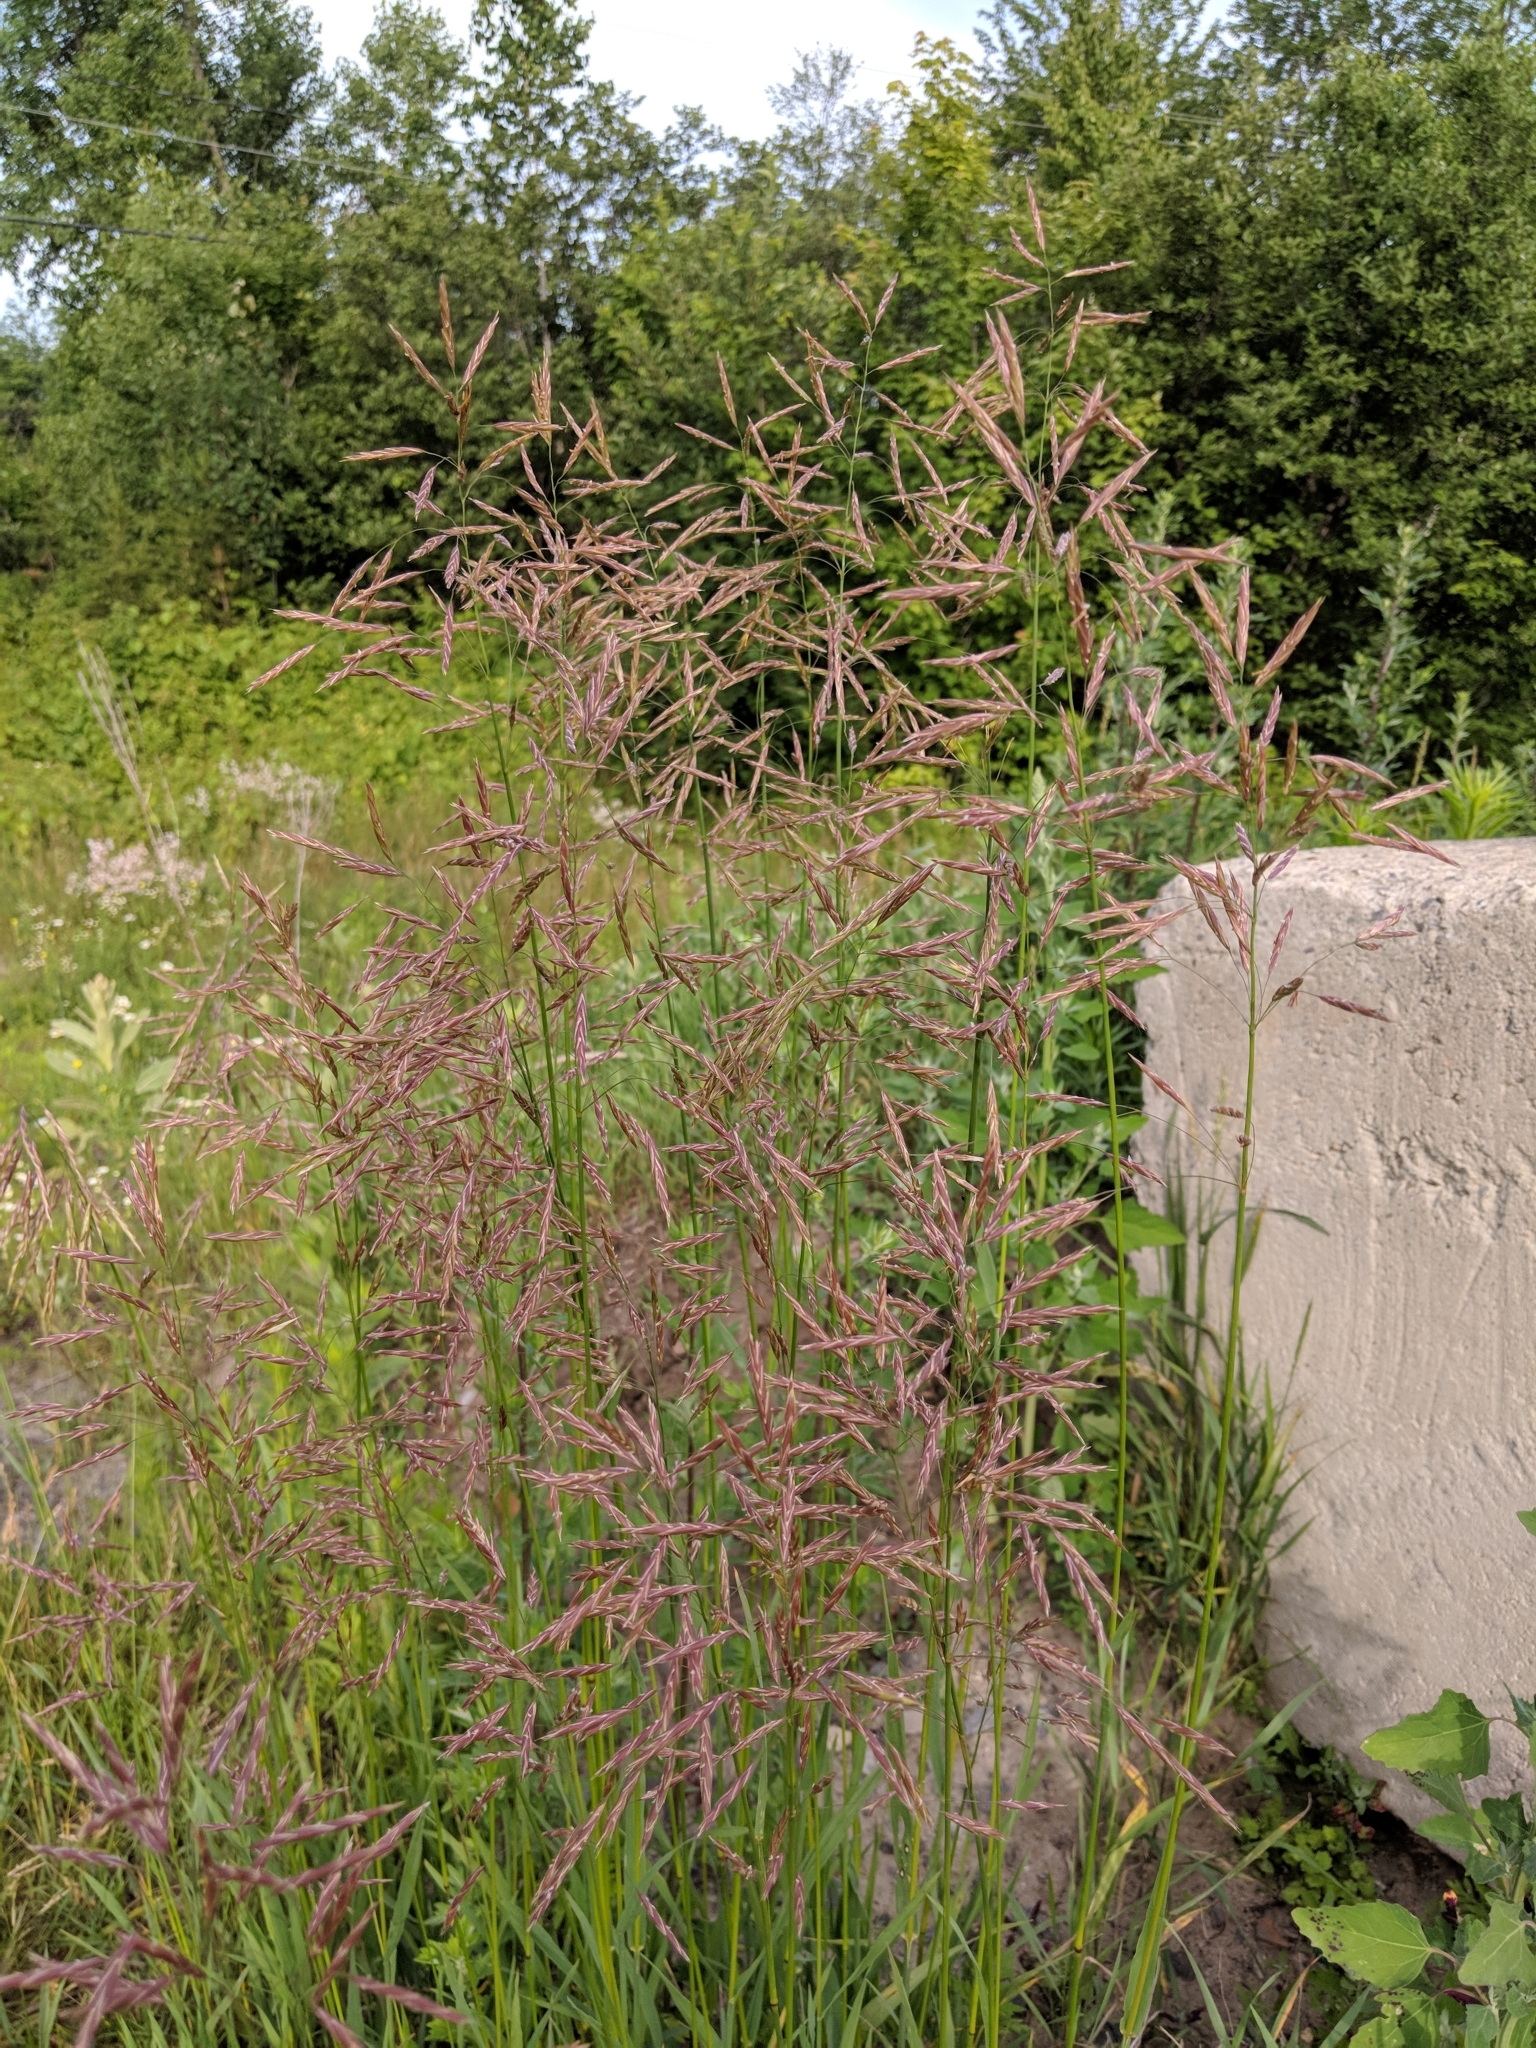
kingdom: Plantae
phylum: Tracheophyta
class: Liliopsida
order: Poales
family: Poaceae
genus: Bromus
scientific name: Bromus inermis
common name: Smooth brome
